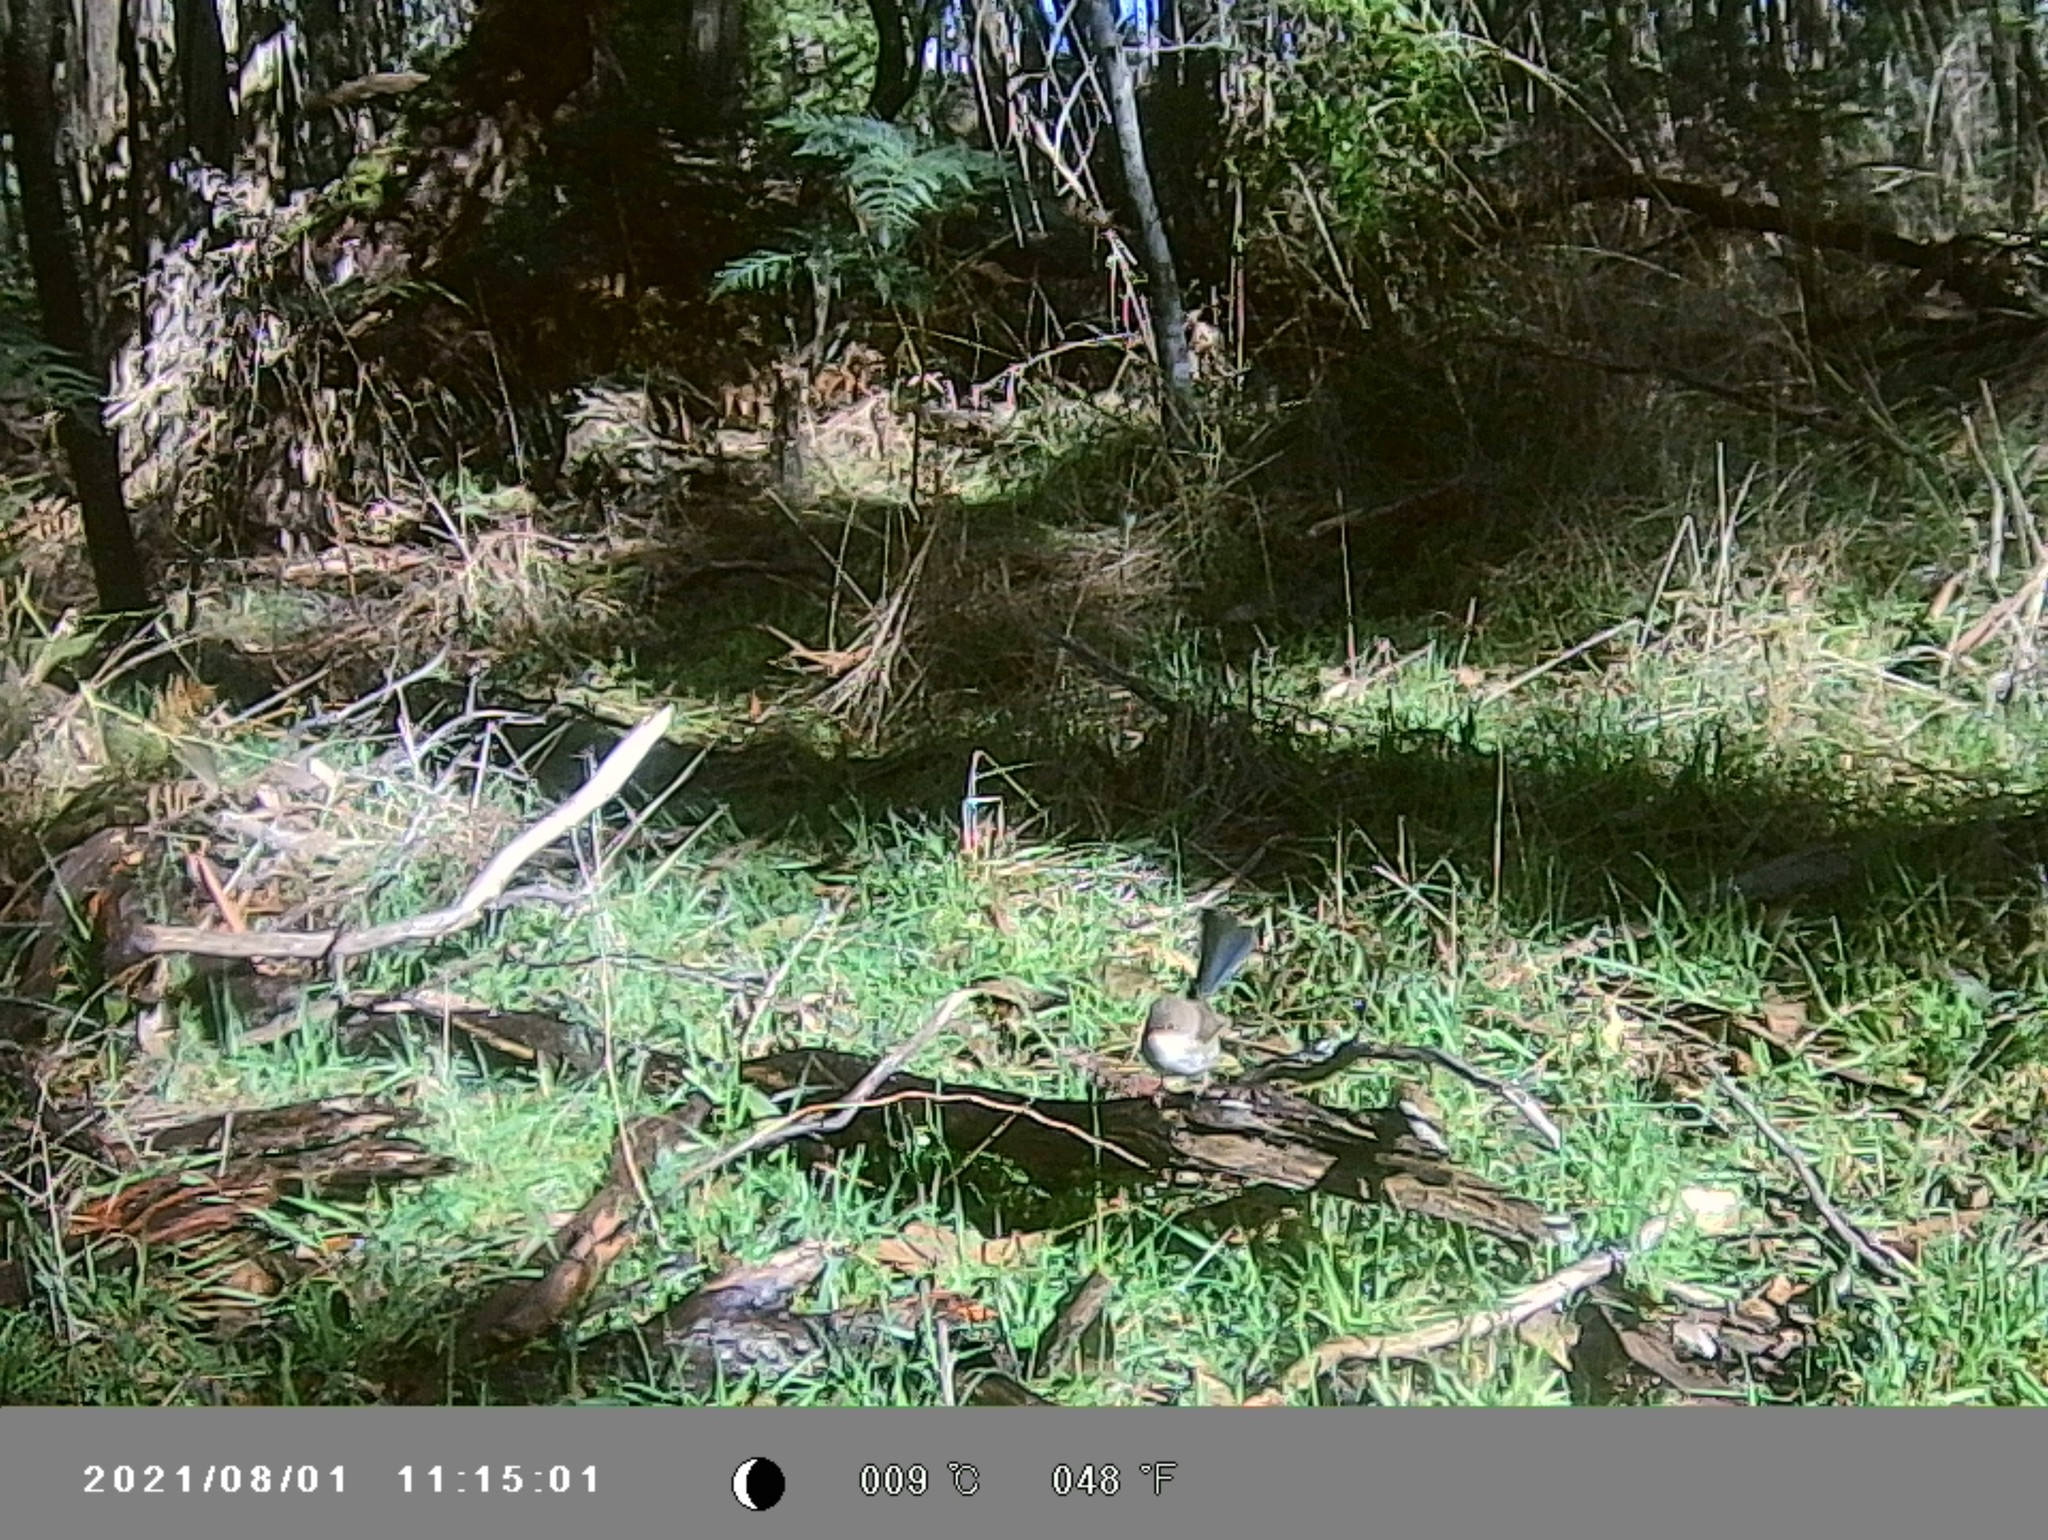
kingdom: Animalia
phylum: Chordata
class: Aves
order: Passeriformes
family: Maluridae
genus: Malurus
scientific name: Malurus cyaneus
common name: Superb fairywren
